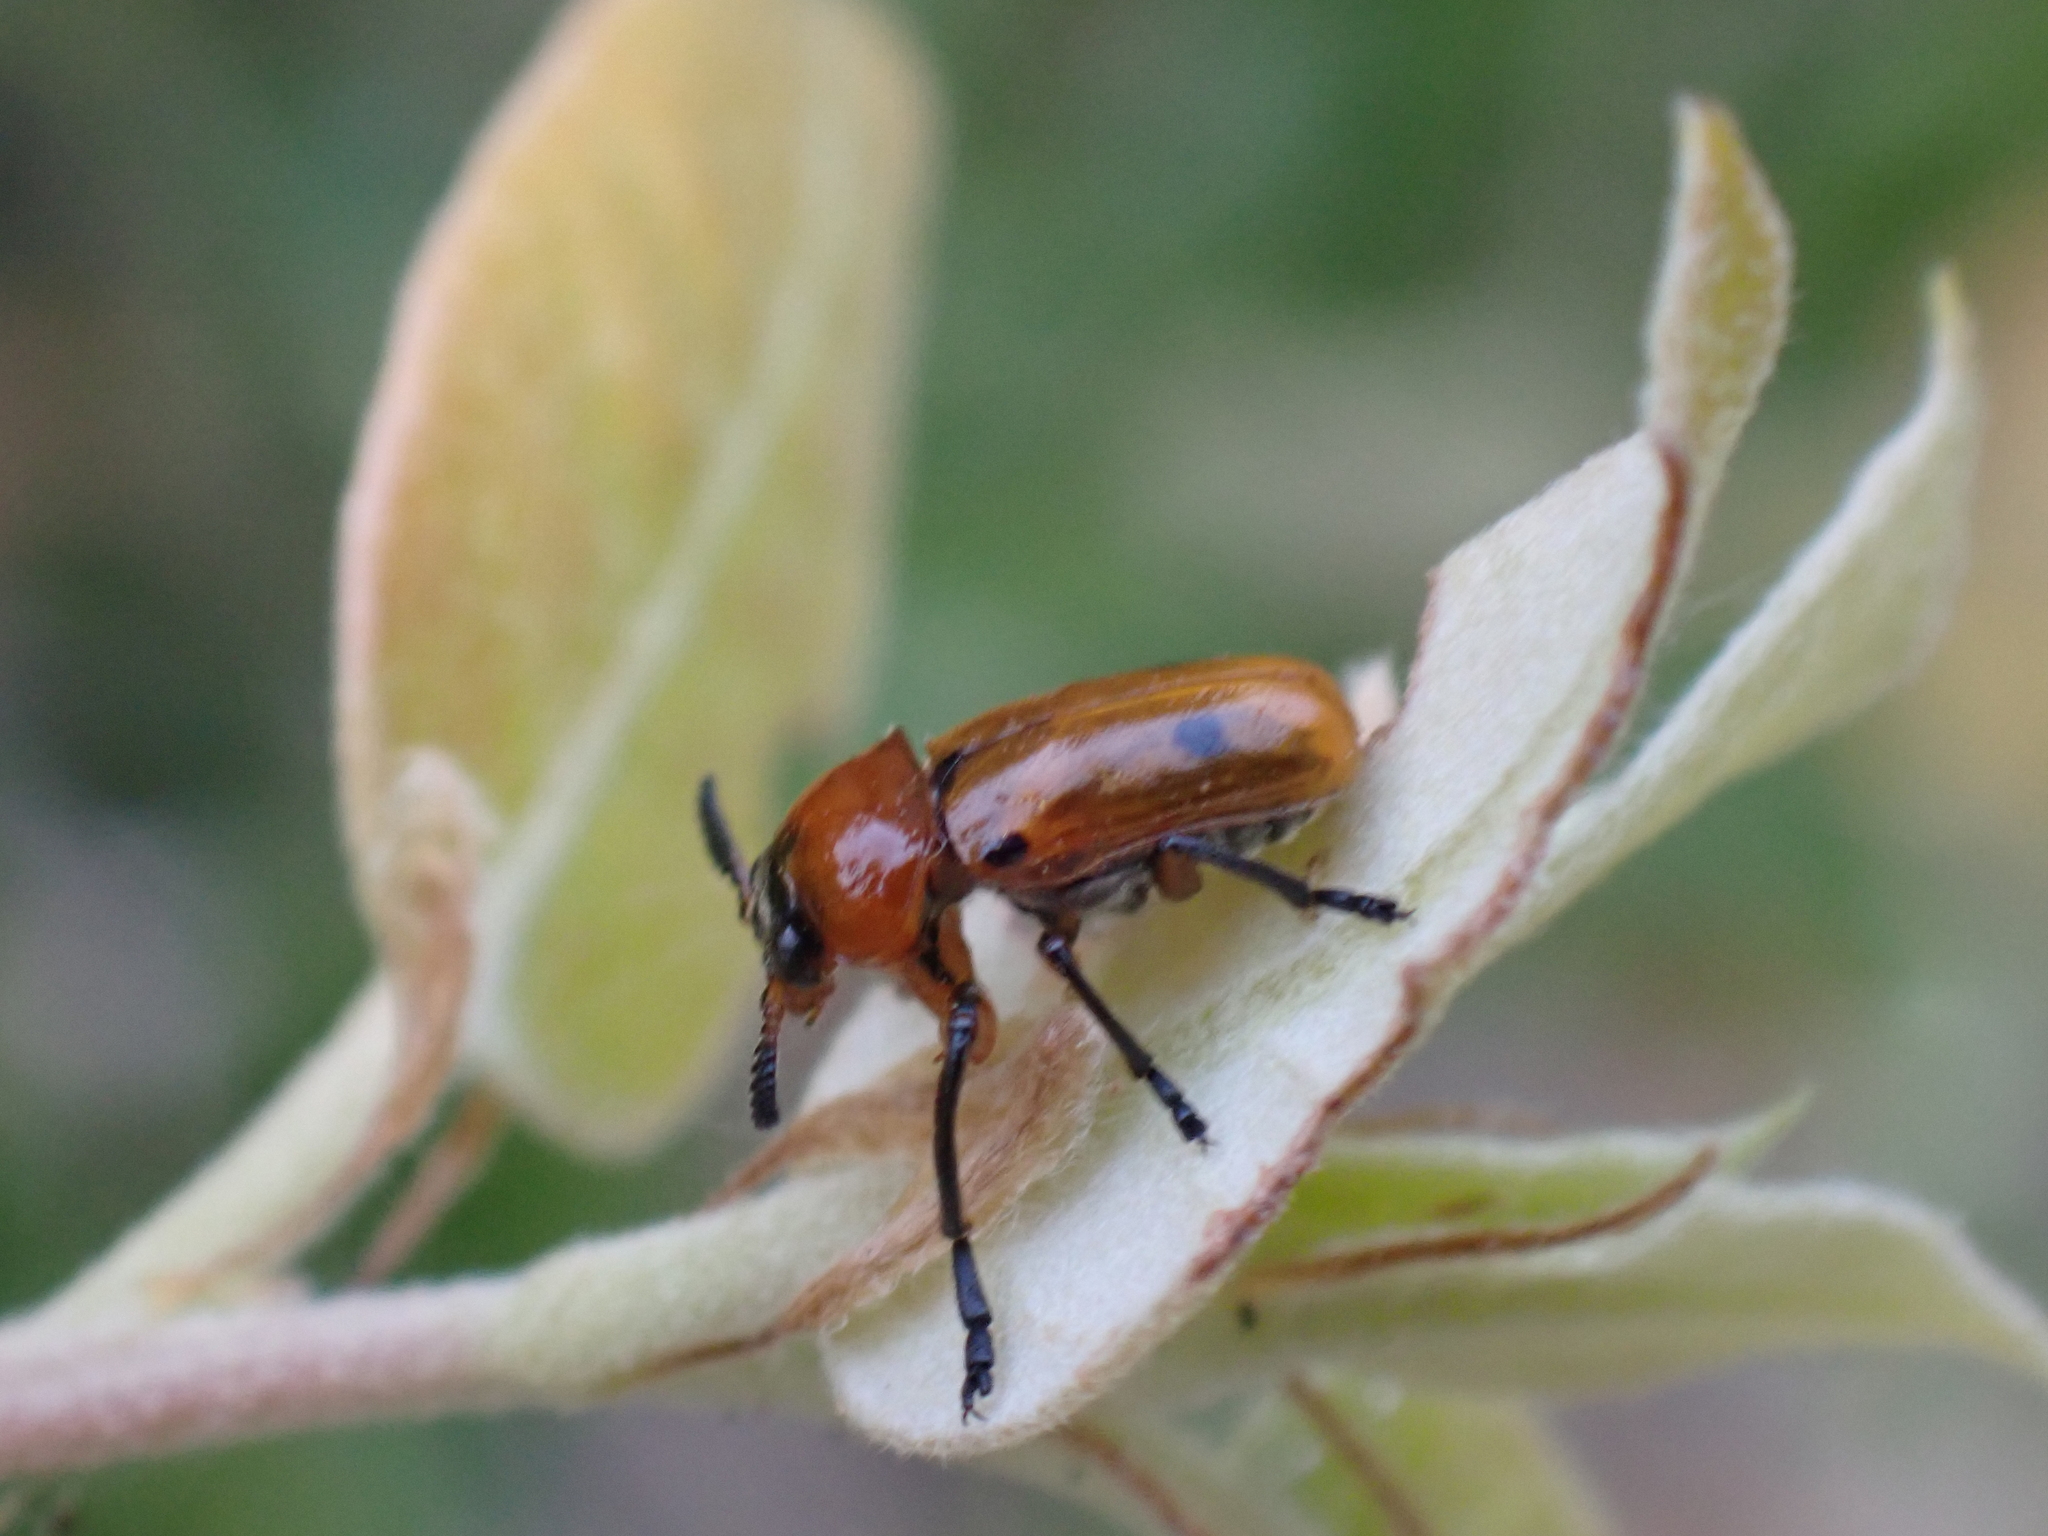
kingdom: Animalia
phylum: Arthropoda
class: Insecta
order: Coleoptera
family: Chrysomelidae
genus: Macrolenes
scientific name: Macrolenes dentipes
